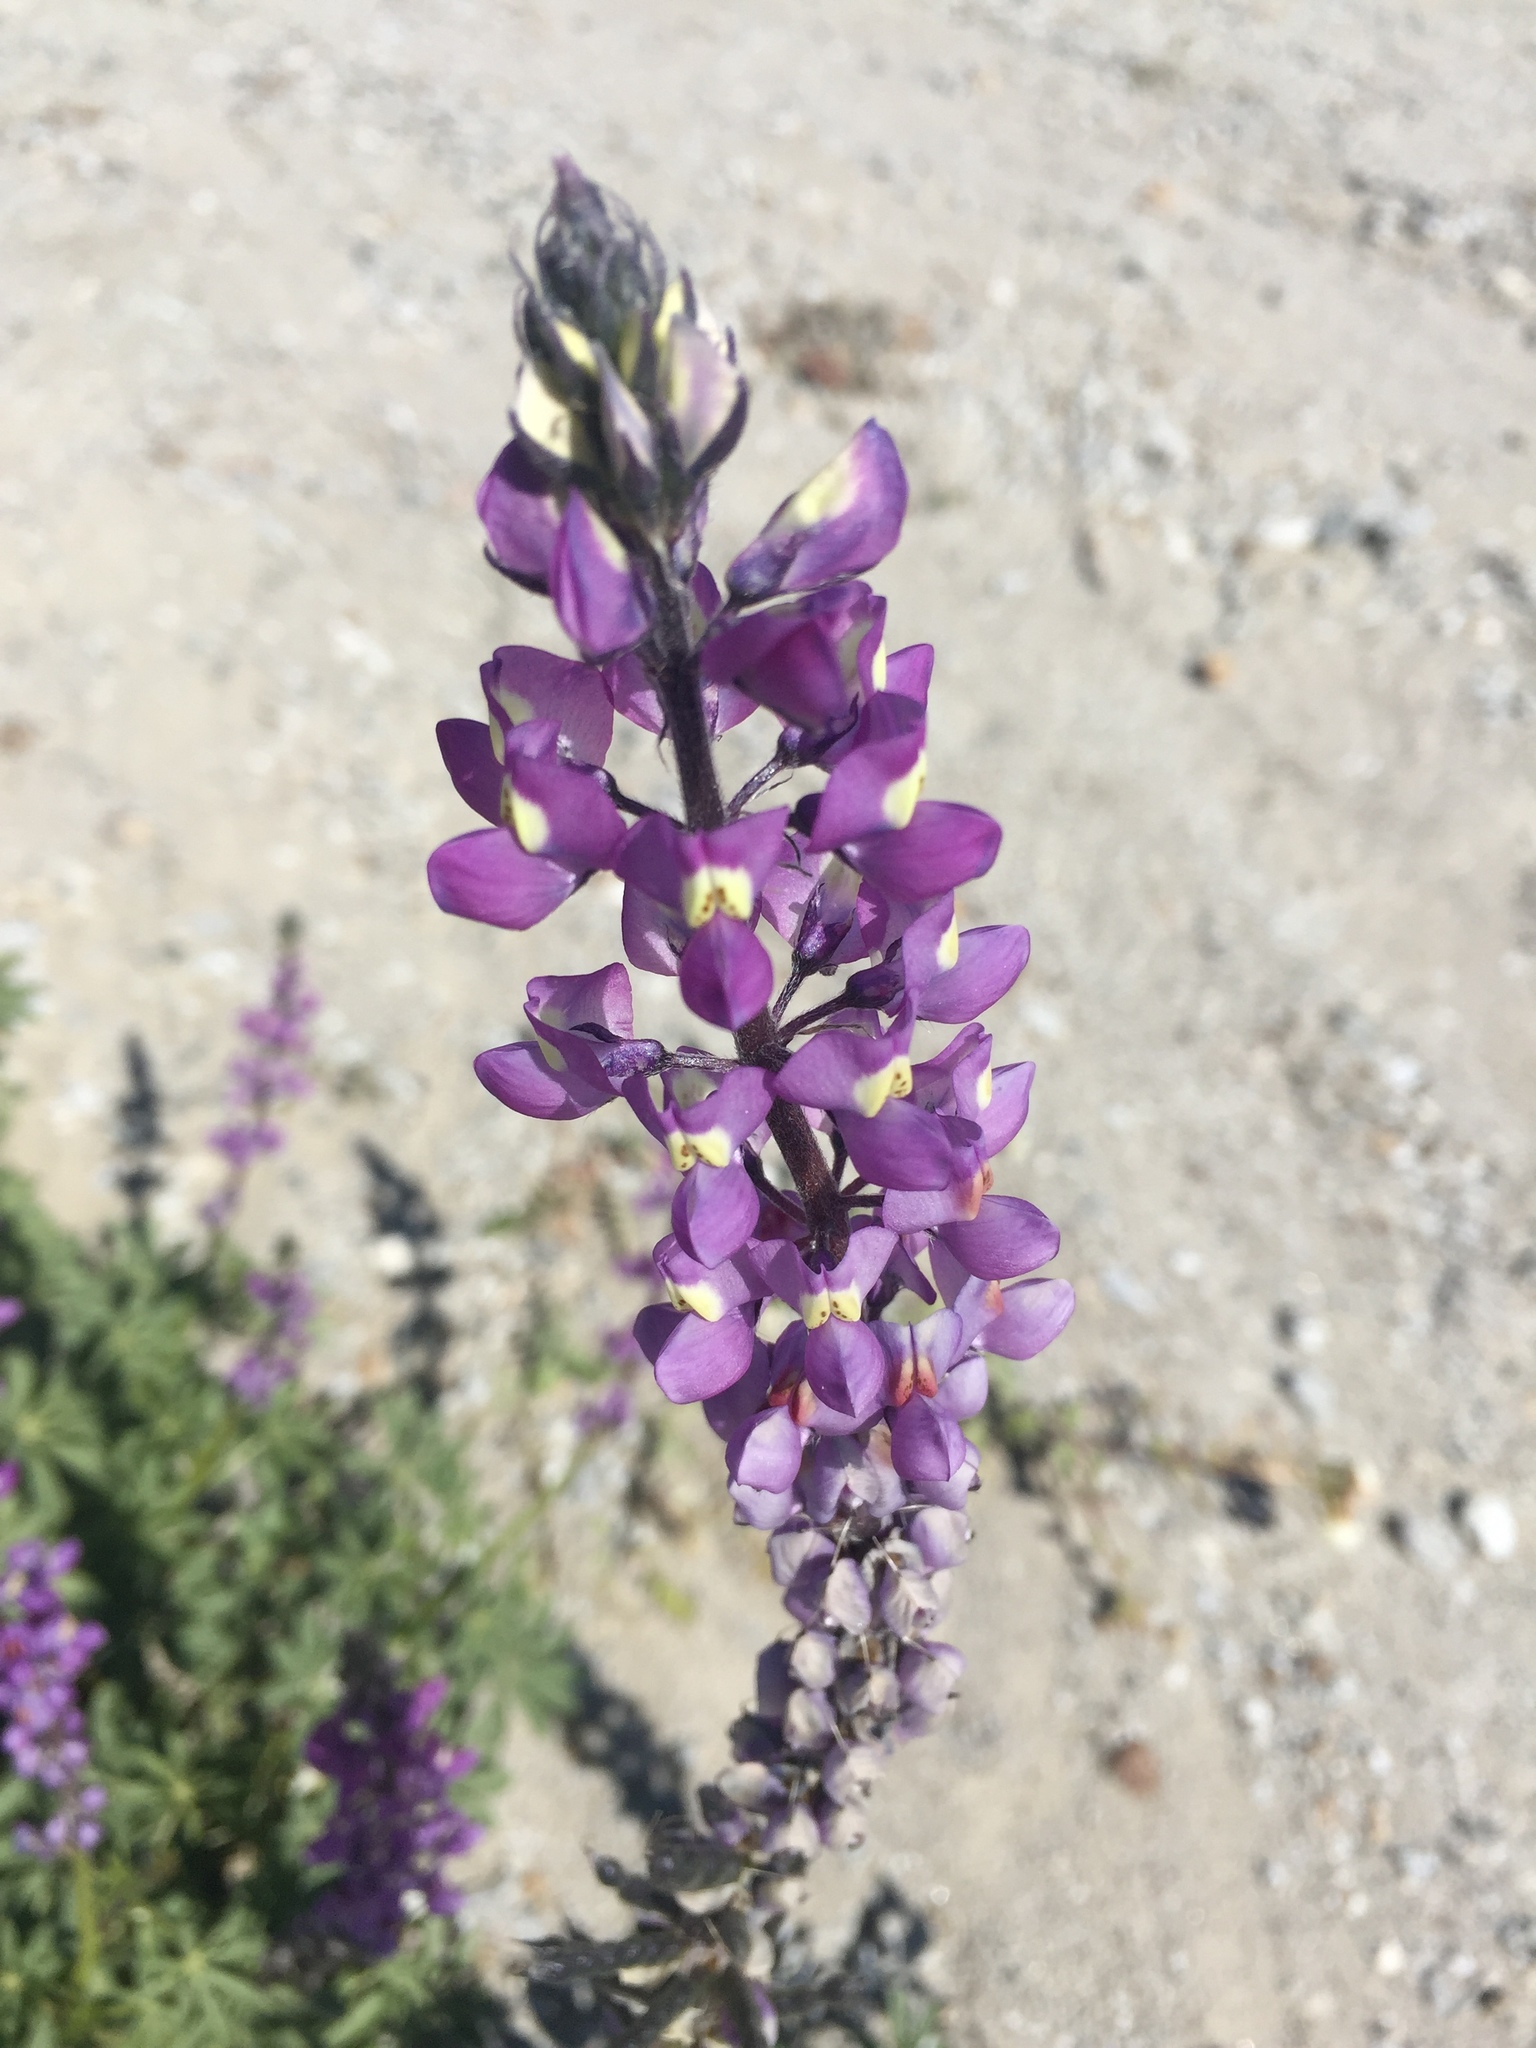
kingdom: Plantae
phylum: Tracheophyta
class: Magnoliopsida
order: Fabales
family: Fabaceae
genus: Lupinus
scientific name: Lupinus arizonicus
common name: Arizona lupine
